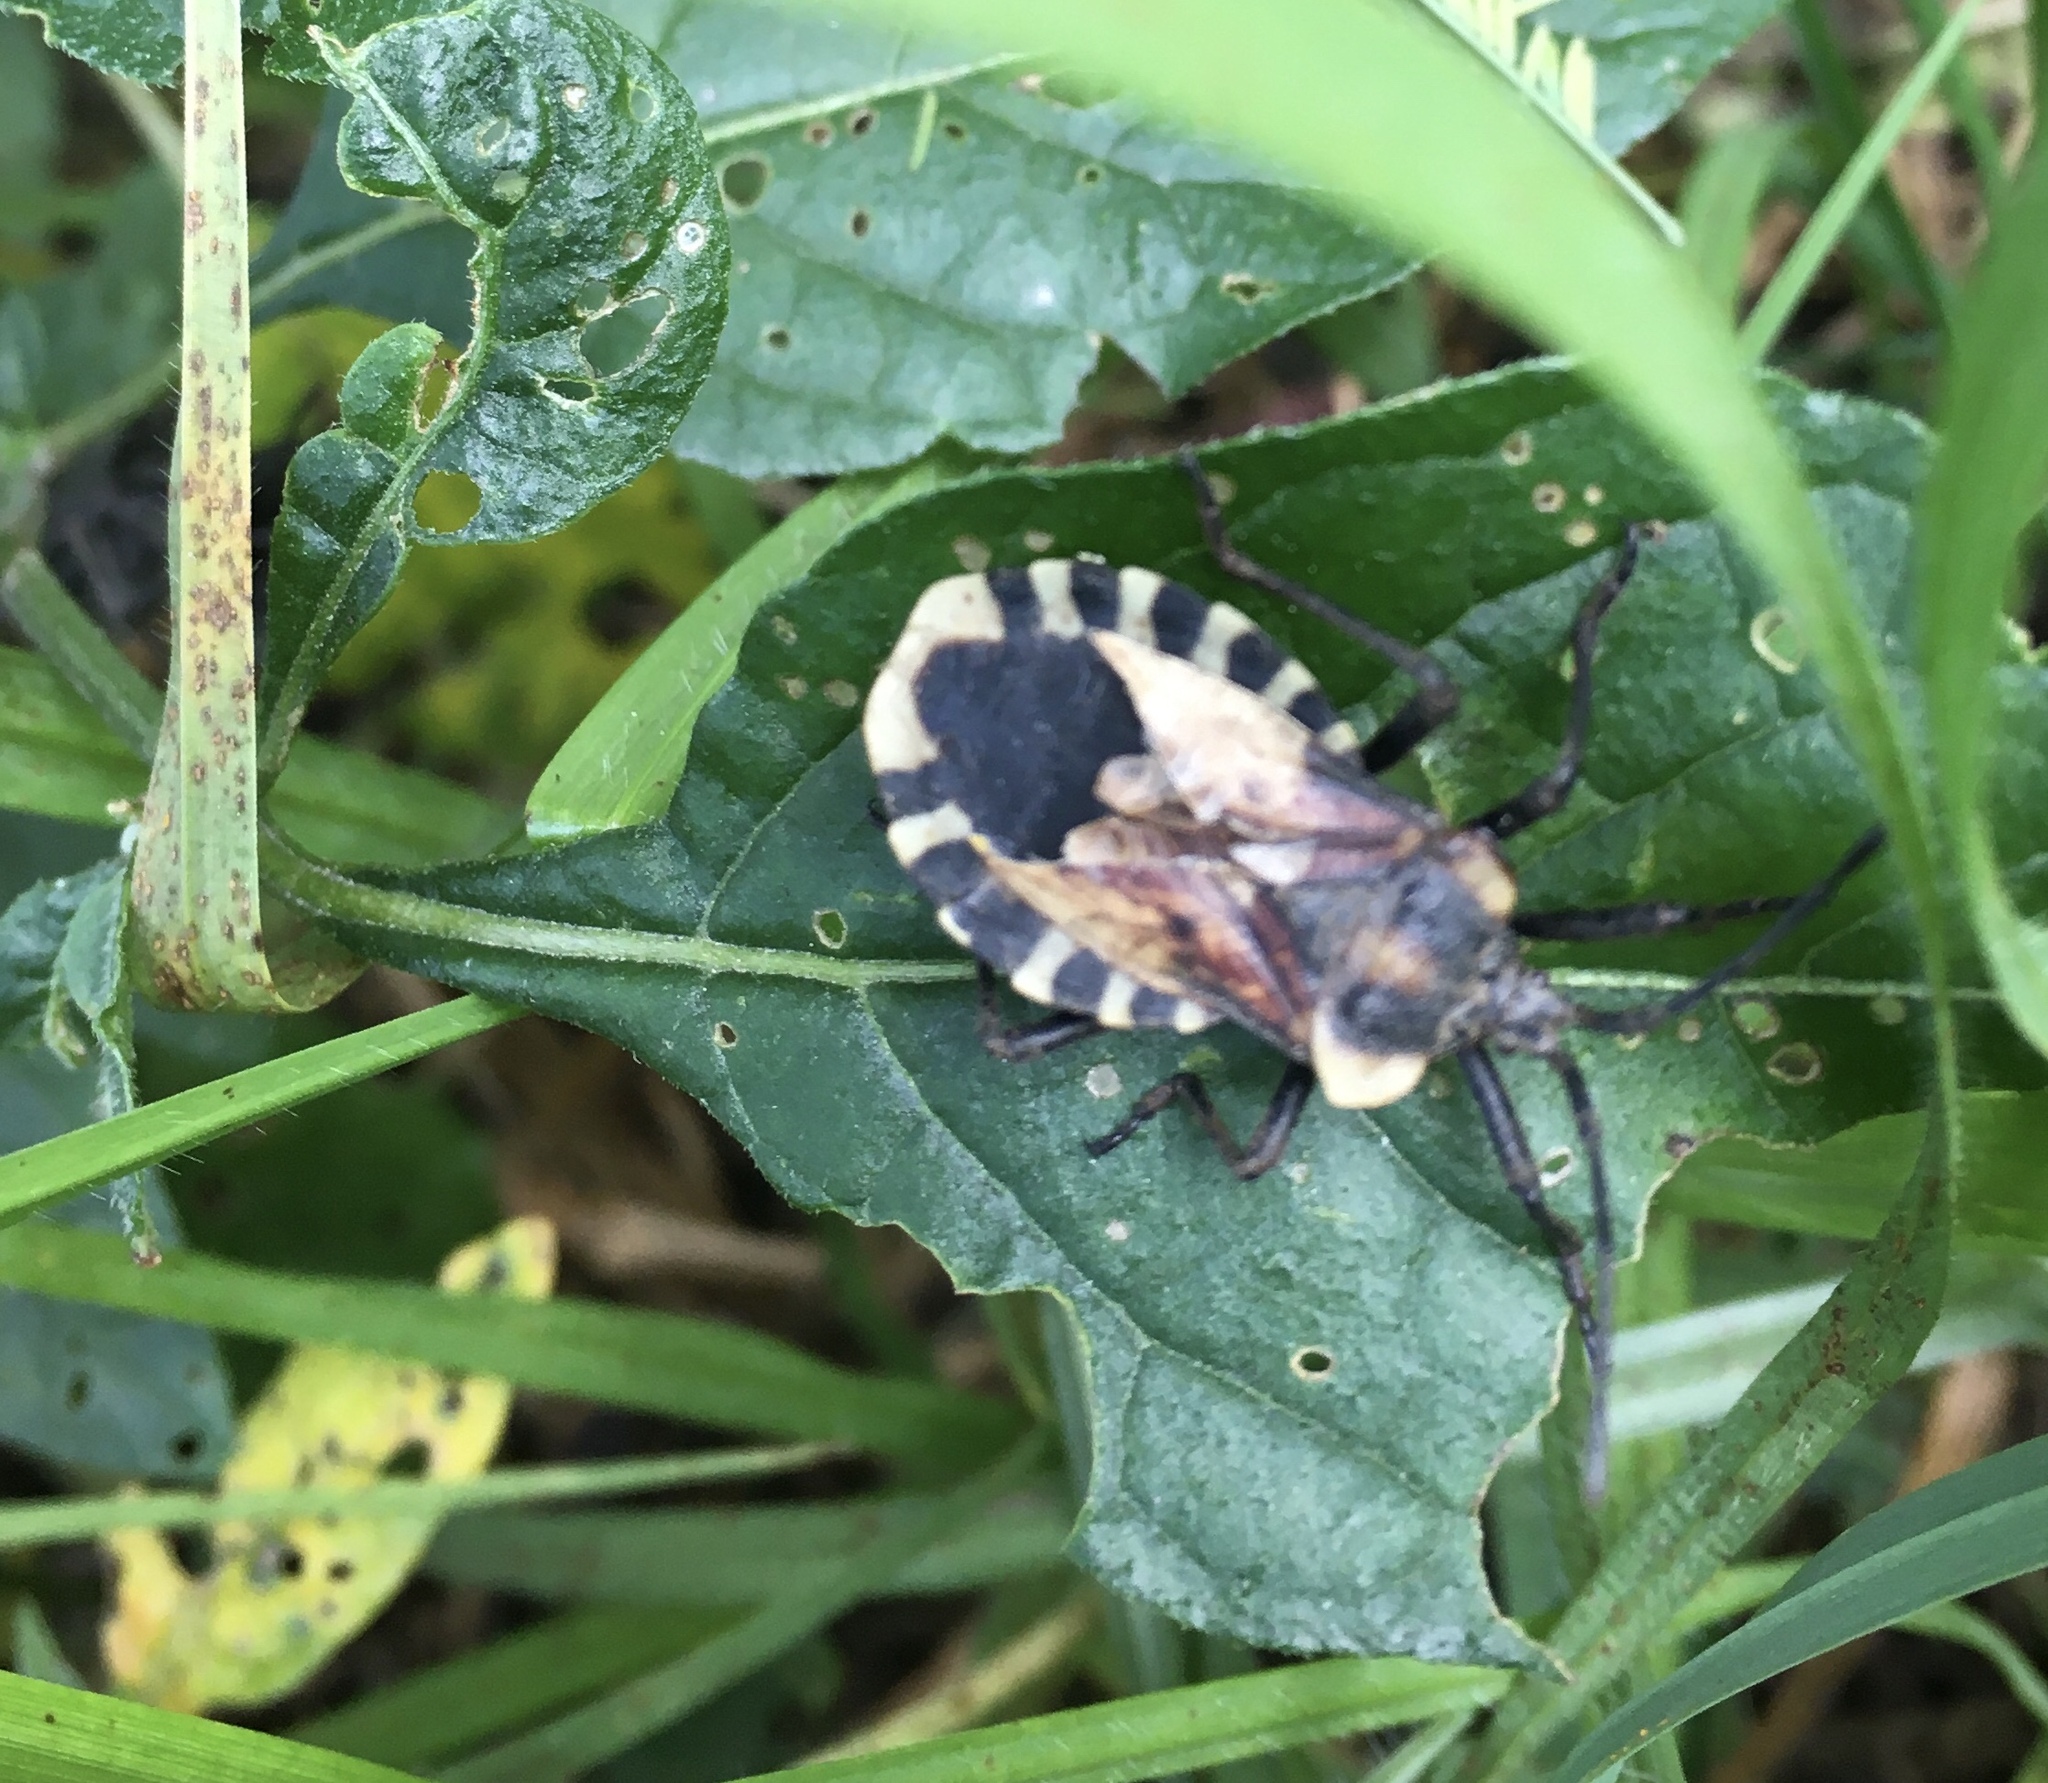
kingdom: Animalia
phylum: Arthropoda
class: Insecta
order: Hemiptera
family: Coreidae
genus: Spartocera
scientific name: Spartocera alternata
